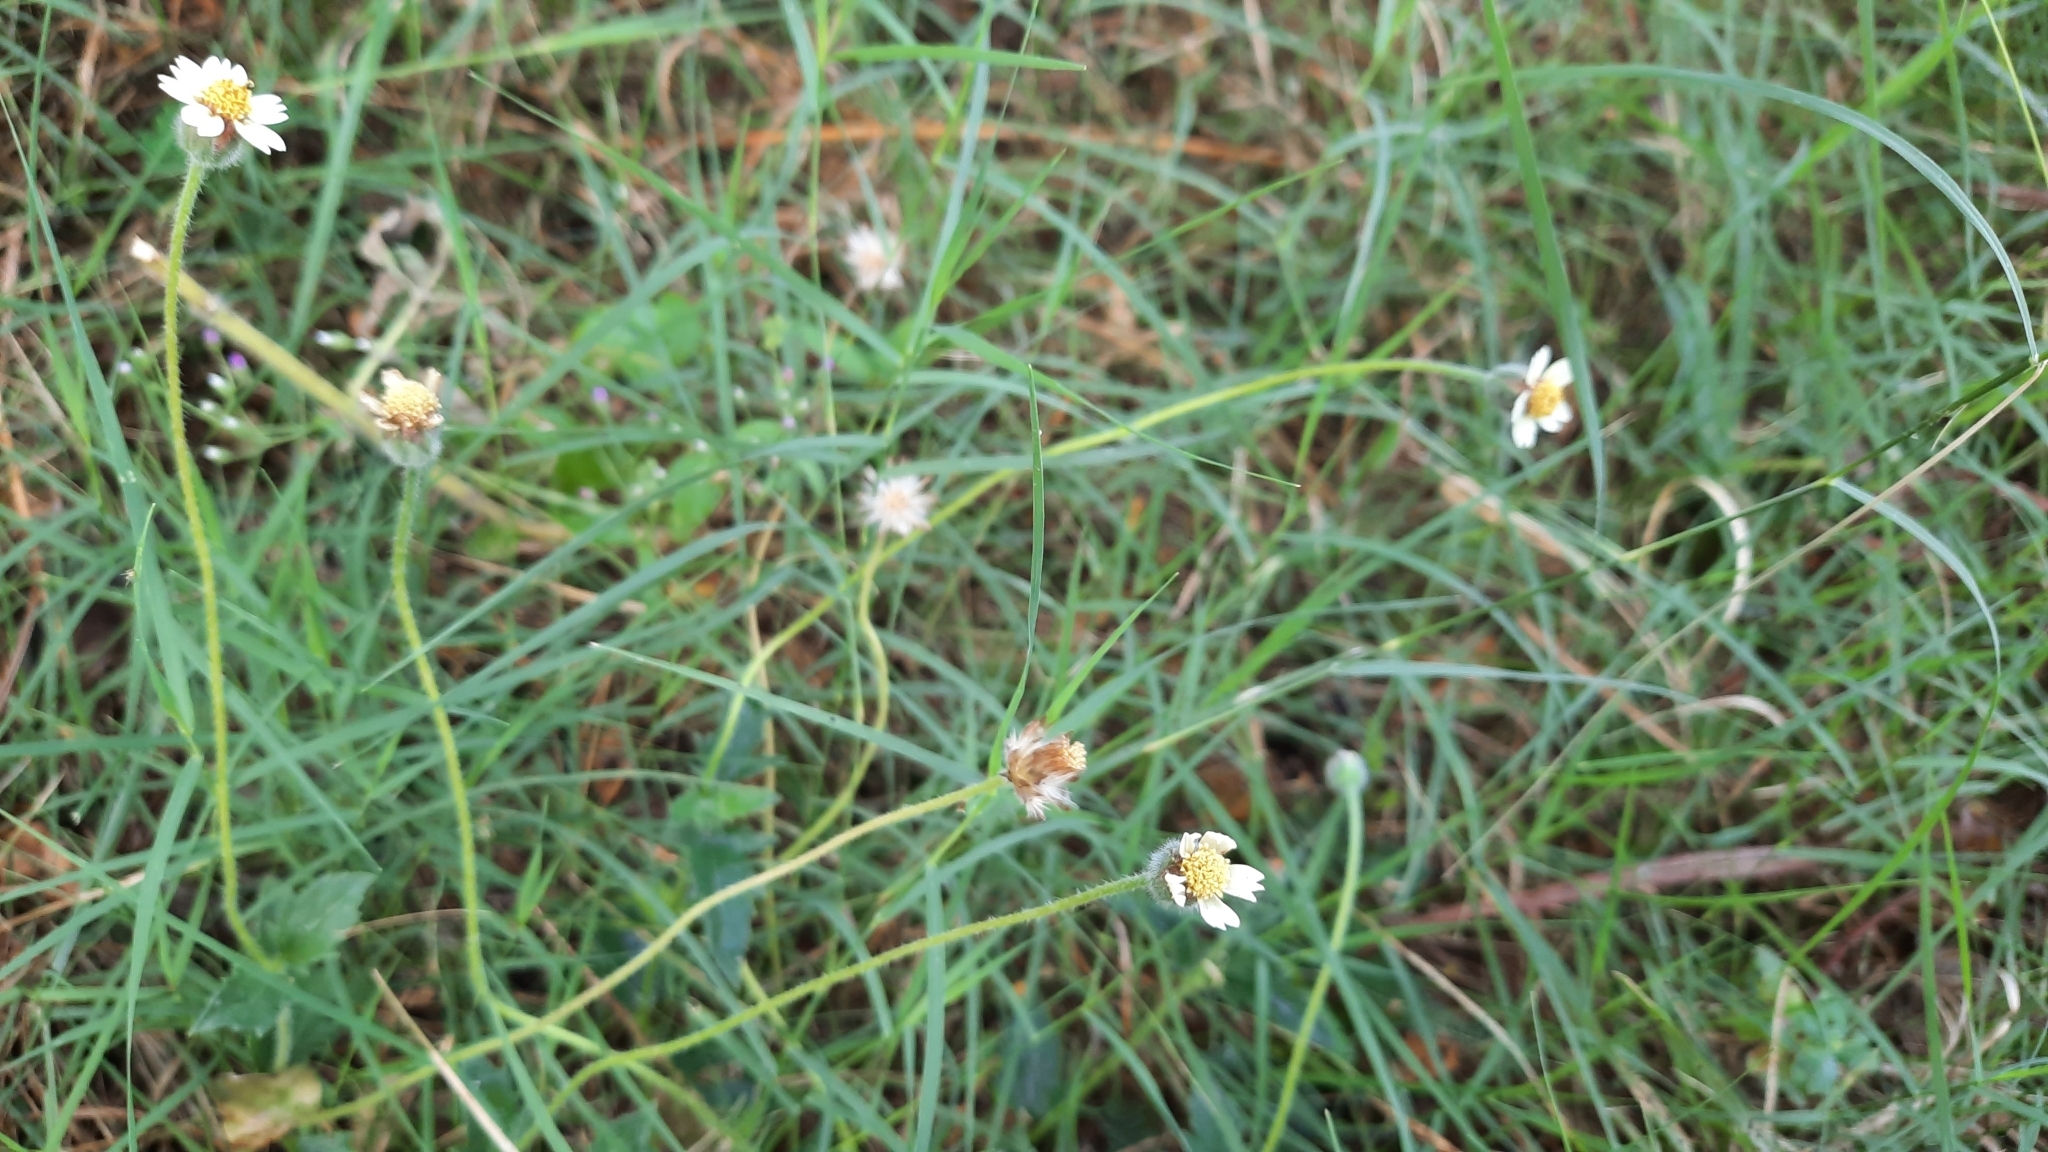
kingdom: Plantae
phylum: Tracheophyta
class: Magnoliopsida
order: Asterales
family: Asteraceae
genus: Tridax
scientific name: Tridax procumbens
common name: Coatbuttons
